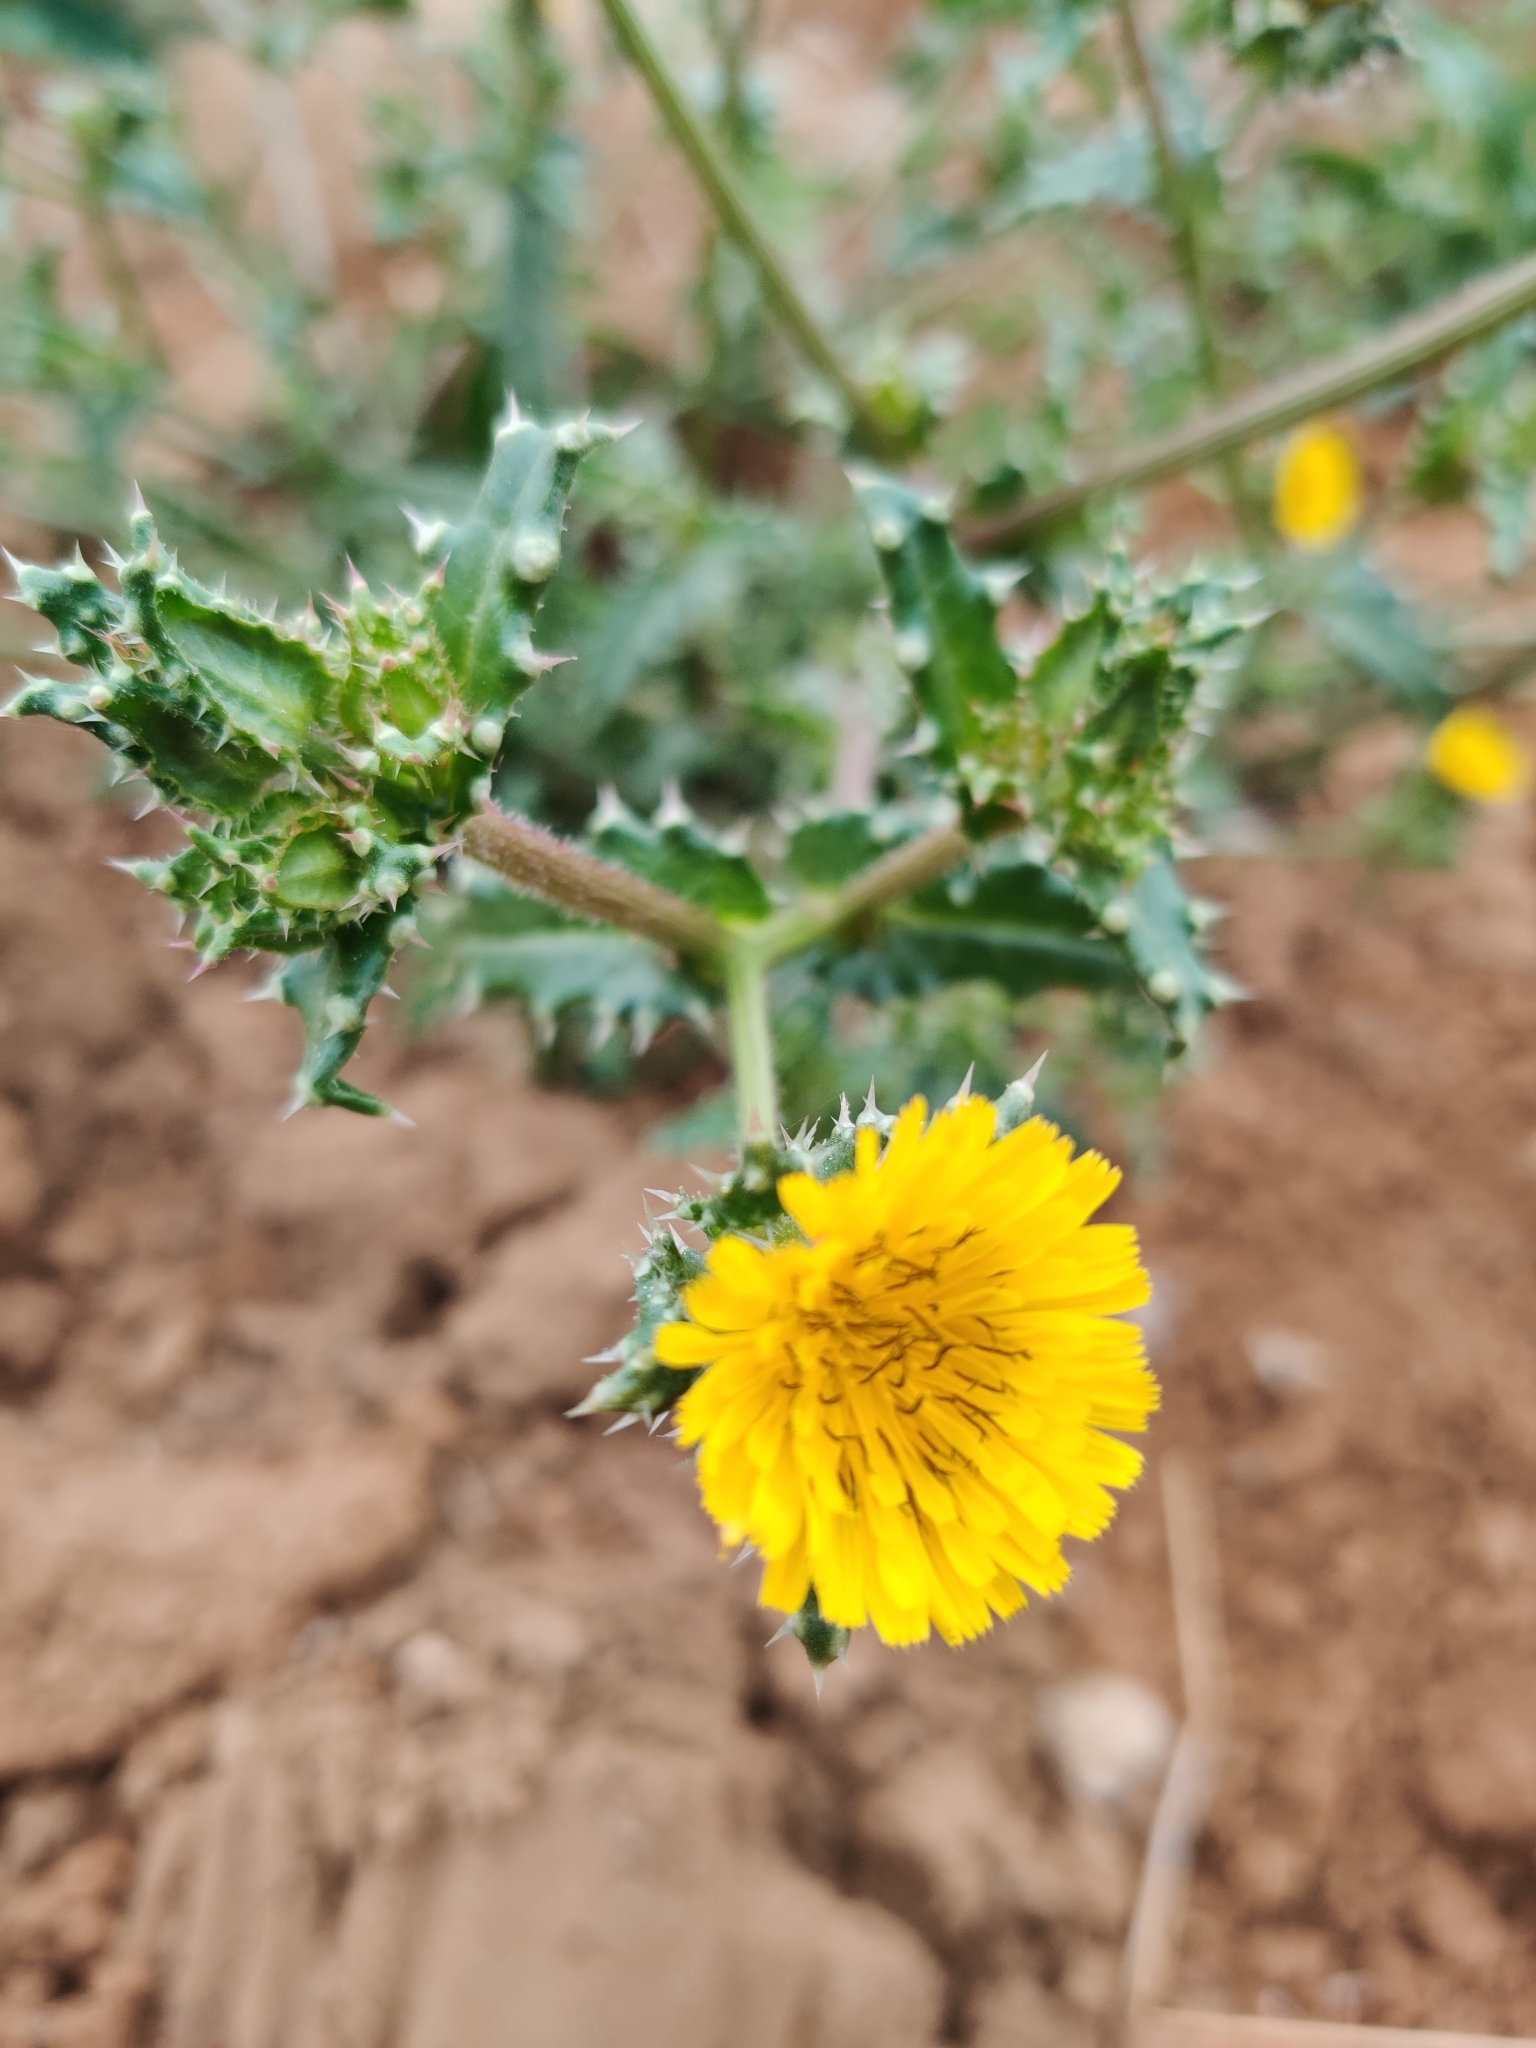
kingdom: Plantae
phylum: Tracheophyta
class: Magnoliopsida
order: Asterales
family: Asteraceae
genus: Helminthotheca
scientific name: Helminthotheca echioides
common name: Ox-tongue
